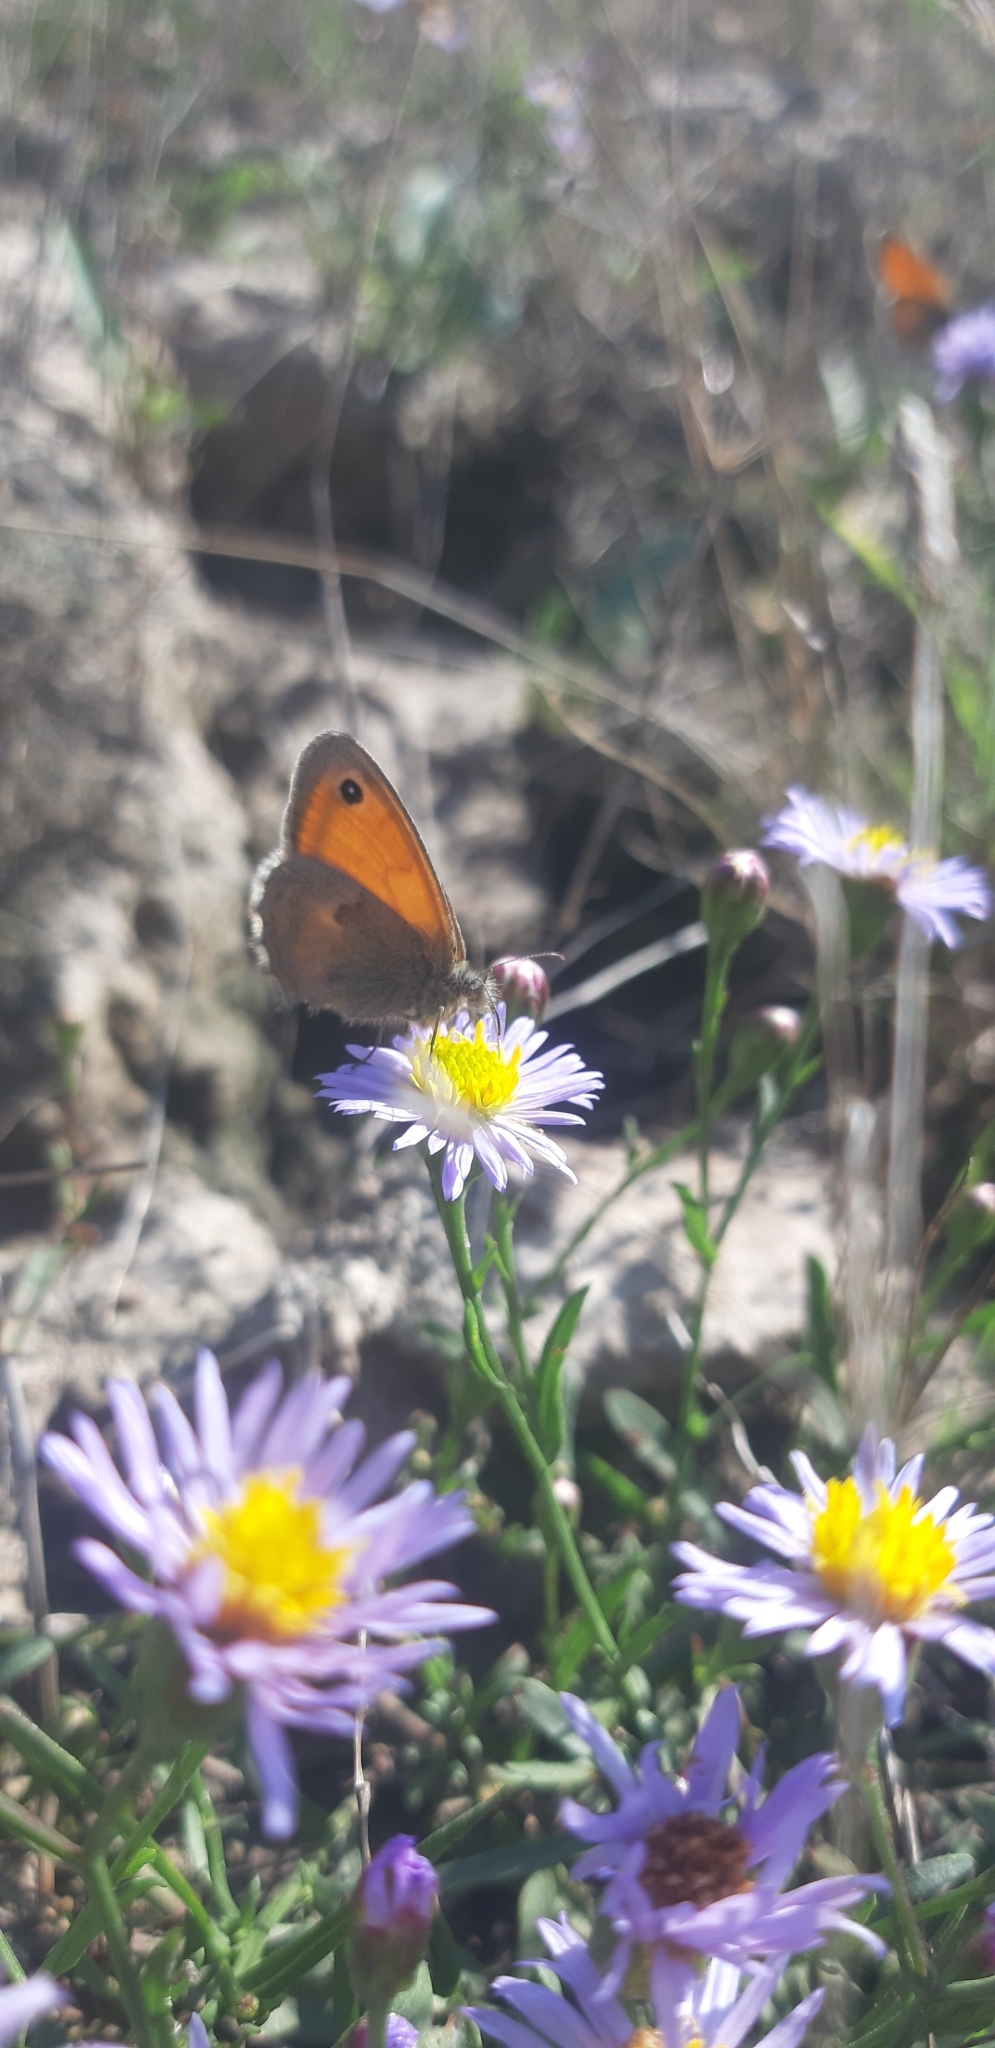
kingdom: Animalia
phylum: Arthropoda
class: Insecta
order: Lepidoptera
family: Nymphalidae
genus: Coenonympha
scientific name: Coenonympha pamphilus
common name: Small heath
